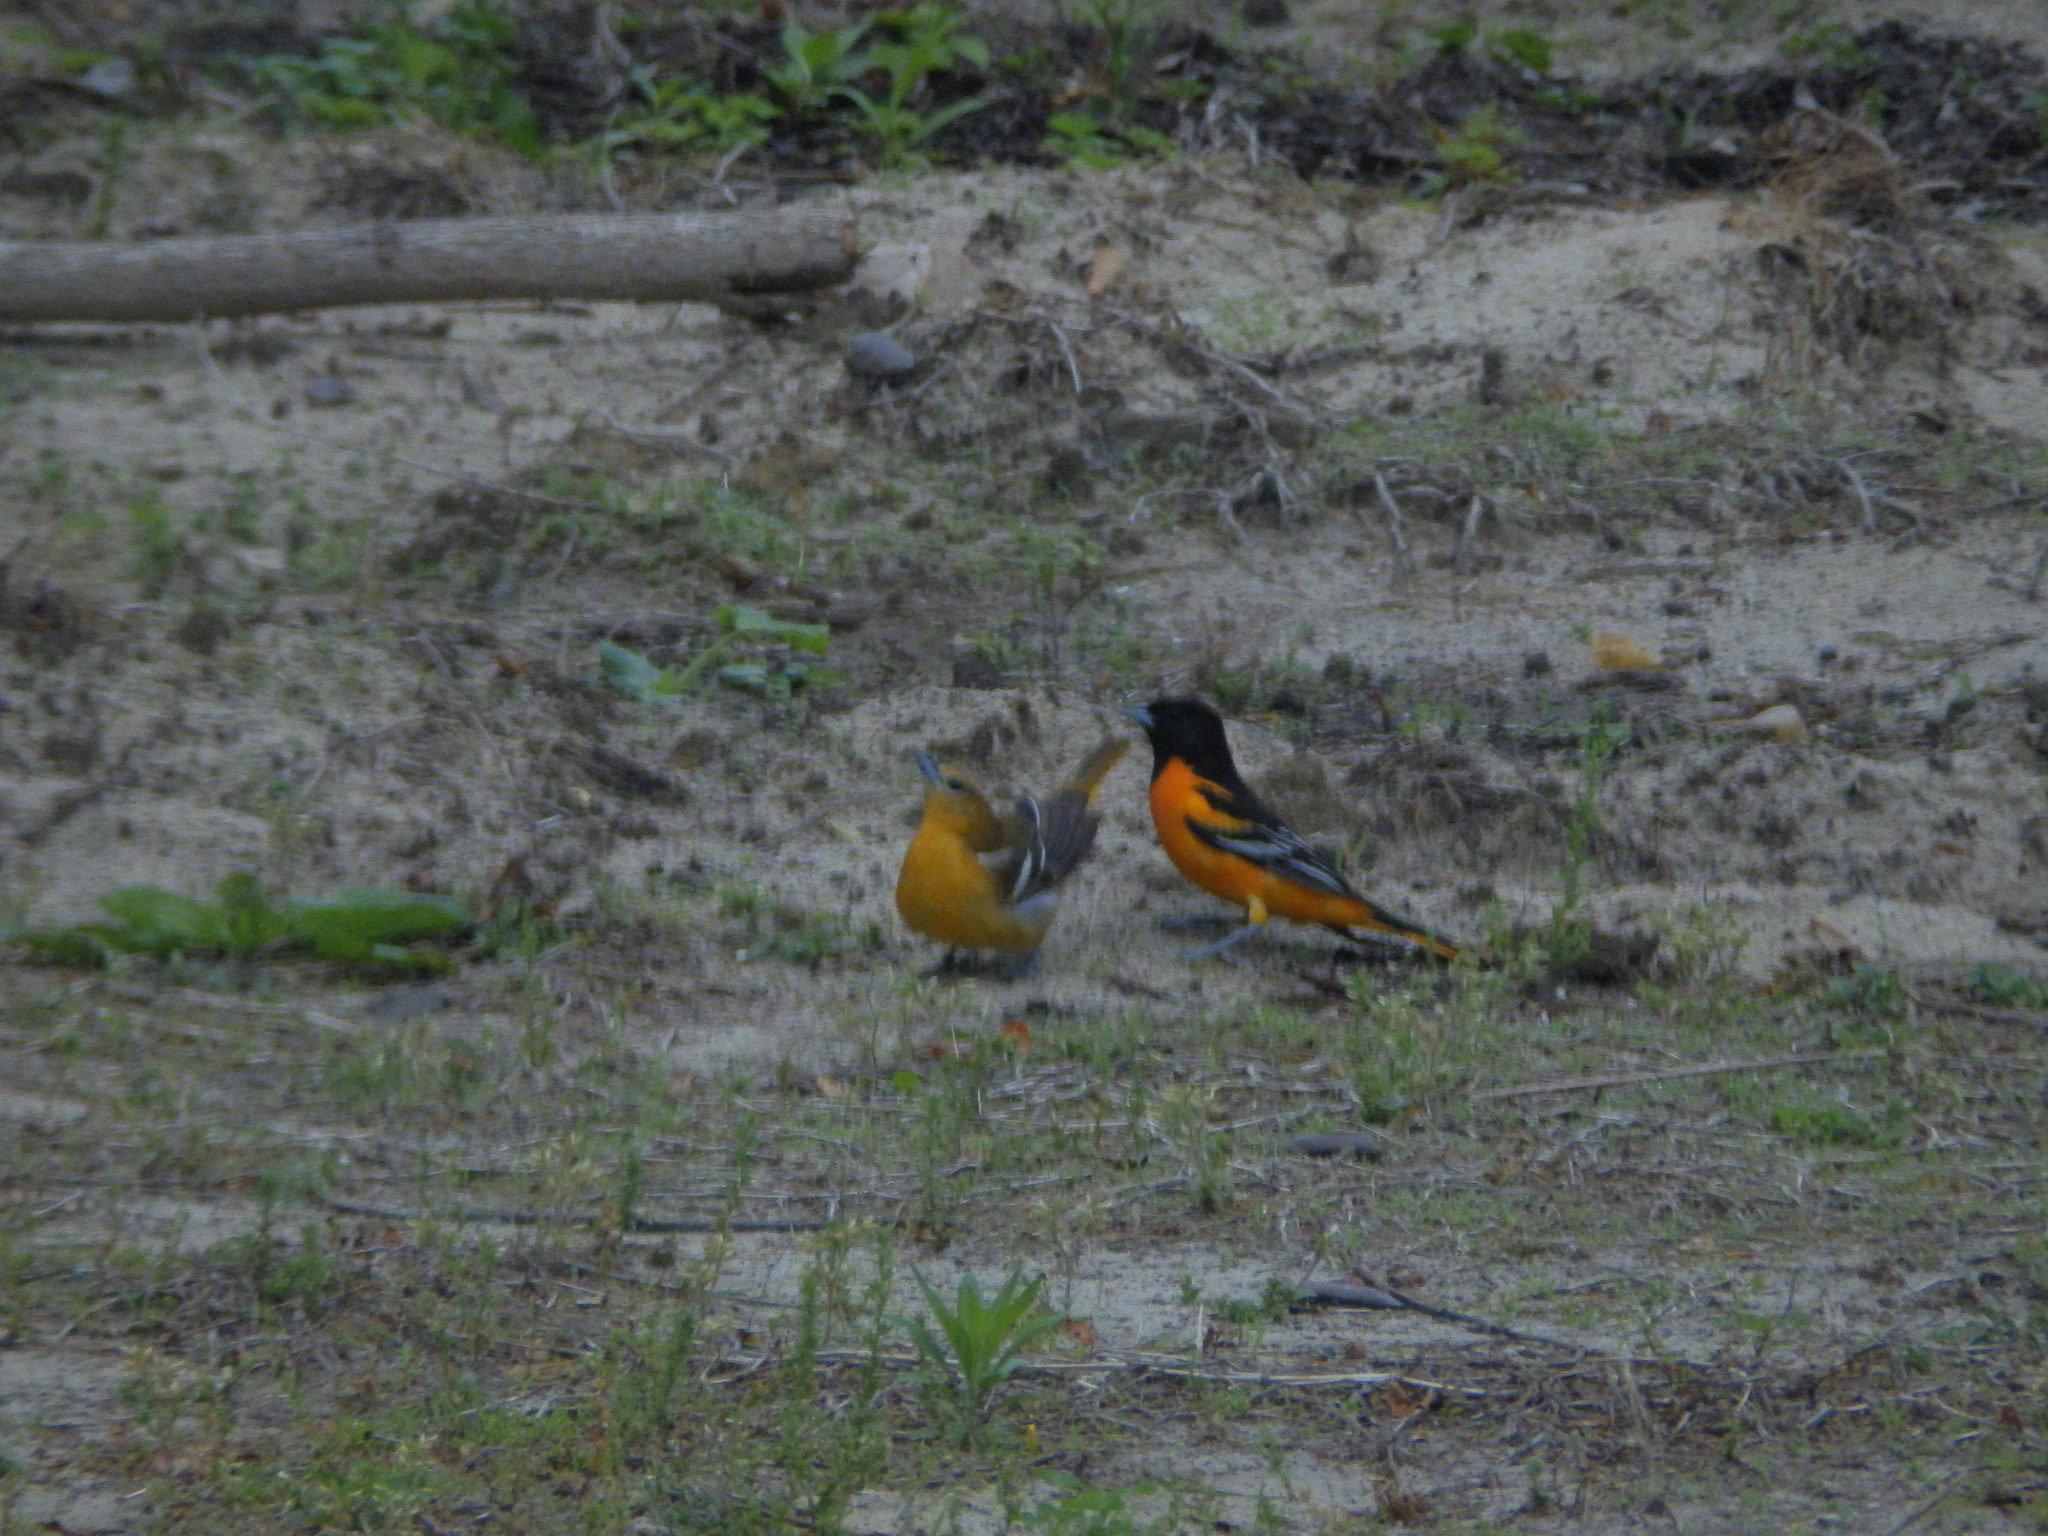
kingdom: Animalia
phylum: Chordata
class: Aves
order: Passeriformes
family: Icteridae
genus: Icterus
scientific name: Icterus galbula
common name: Baltimore oriole
